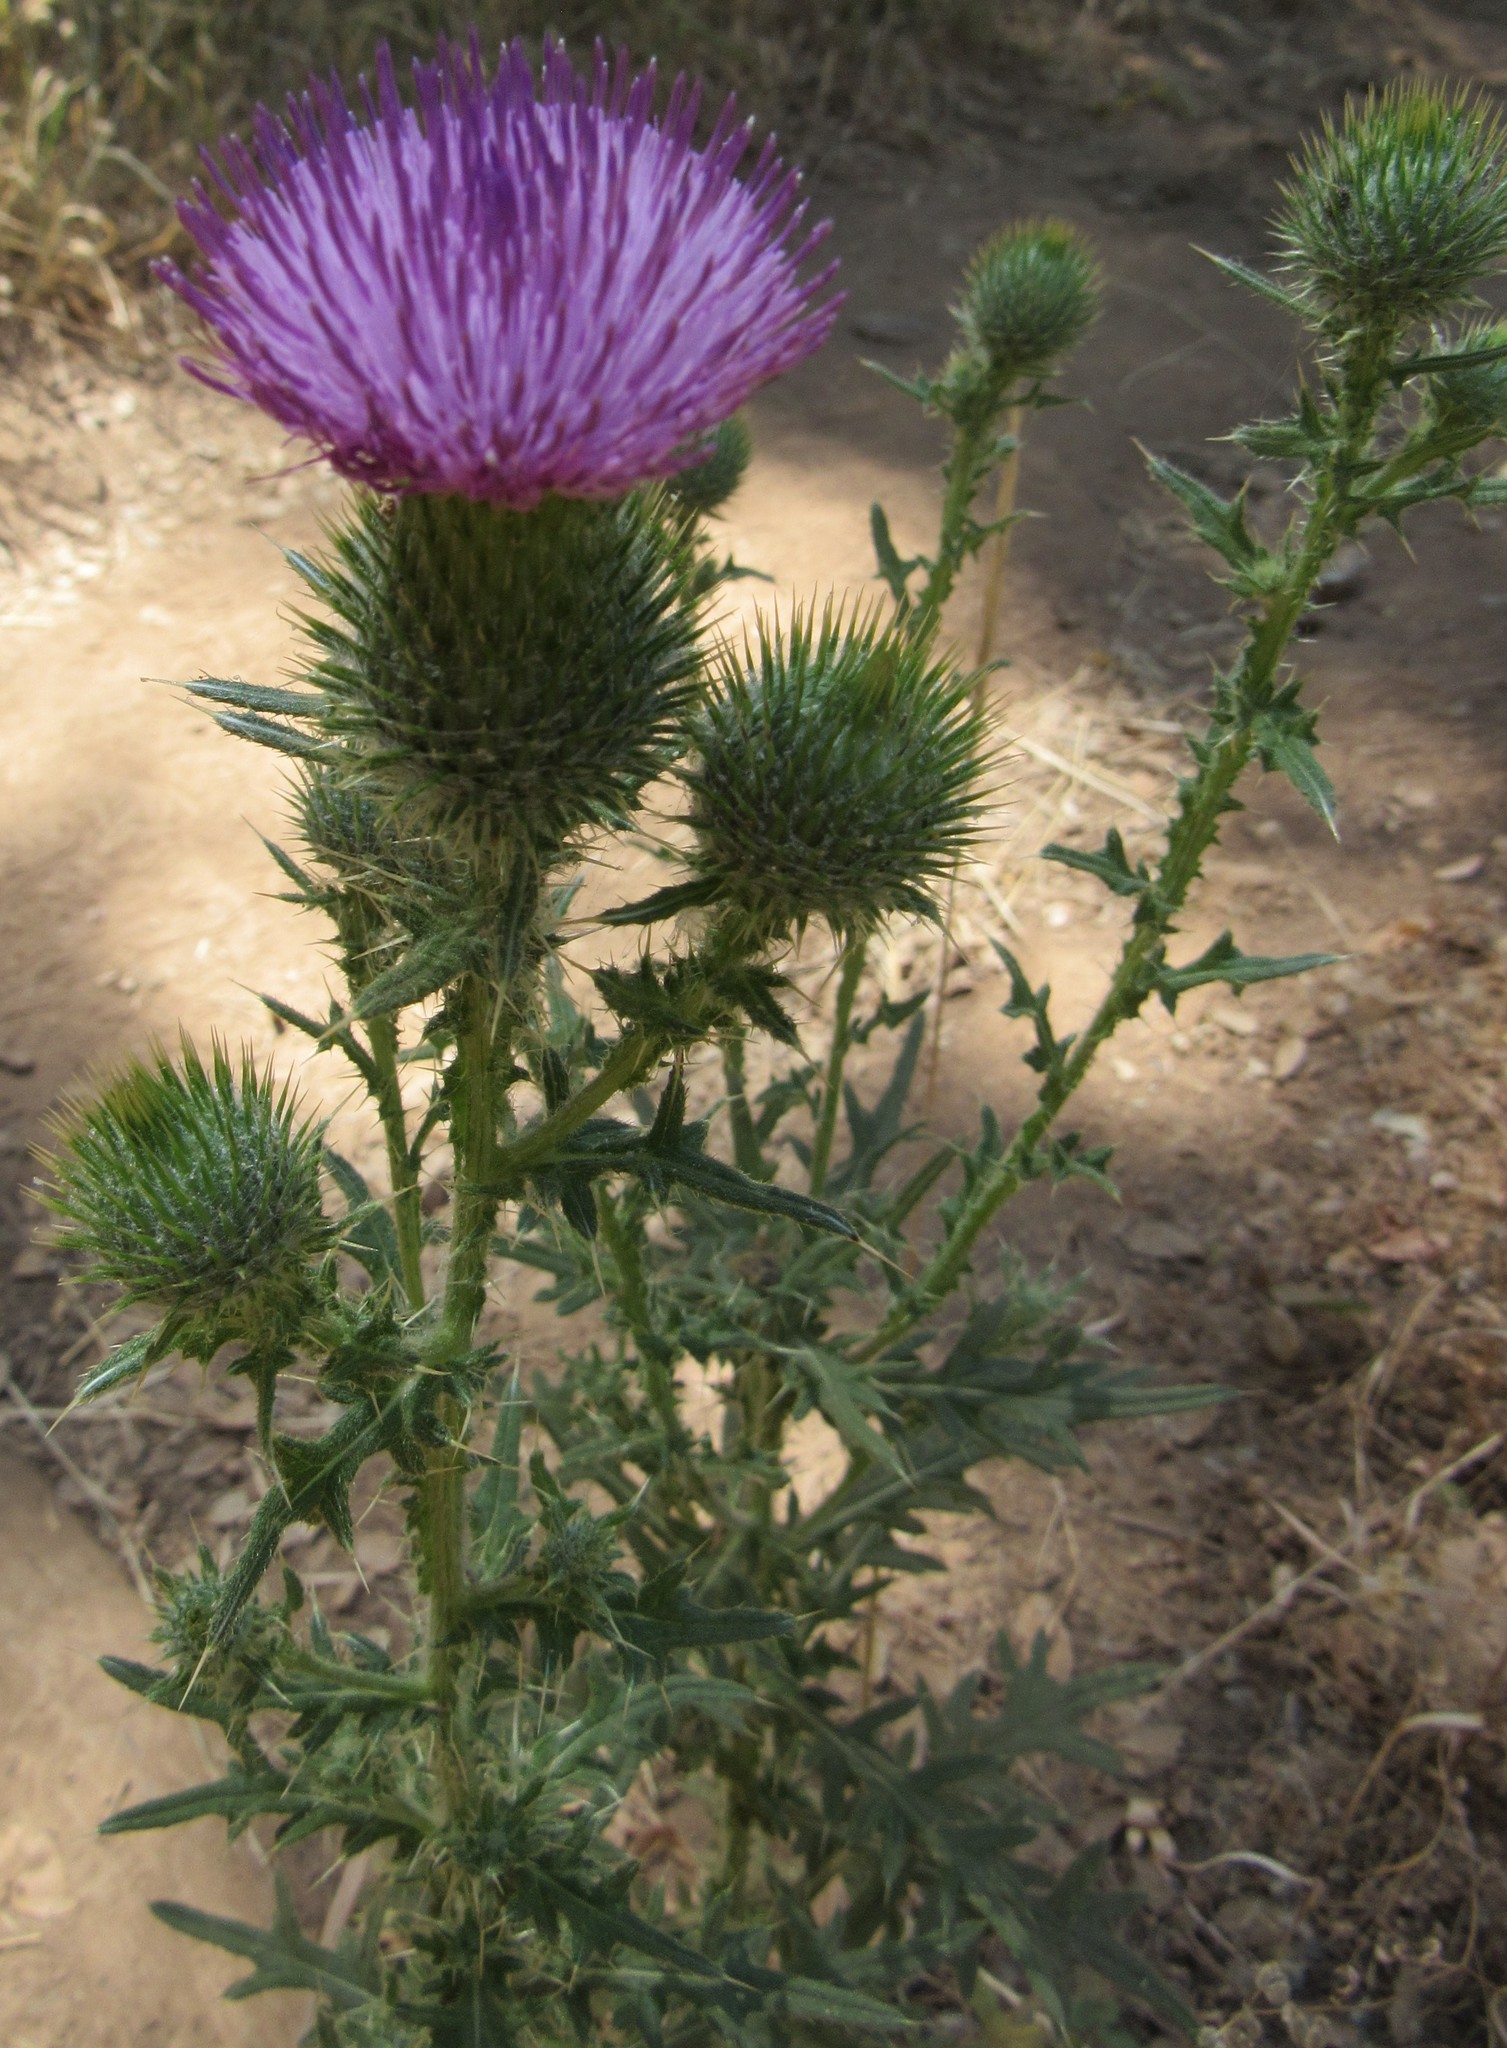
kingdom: Plantae
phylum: Tracheophyta
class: Magnoliopsida
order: Asterales
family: Asteraceae
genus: Cirsium
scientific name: Cirsium vulgare
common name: Bull thistle
